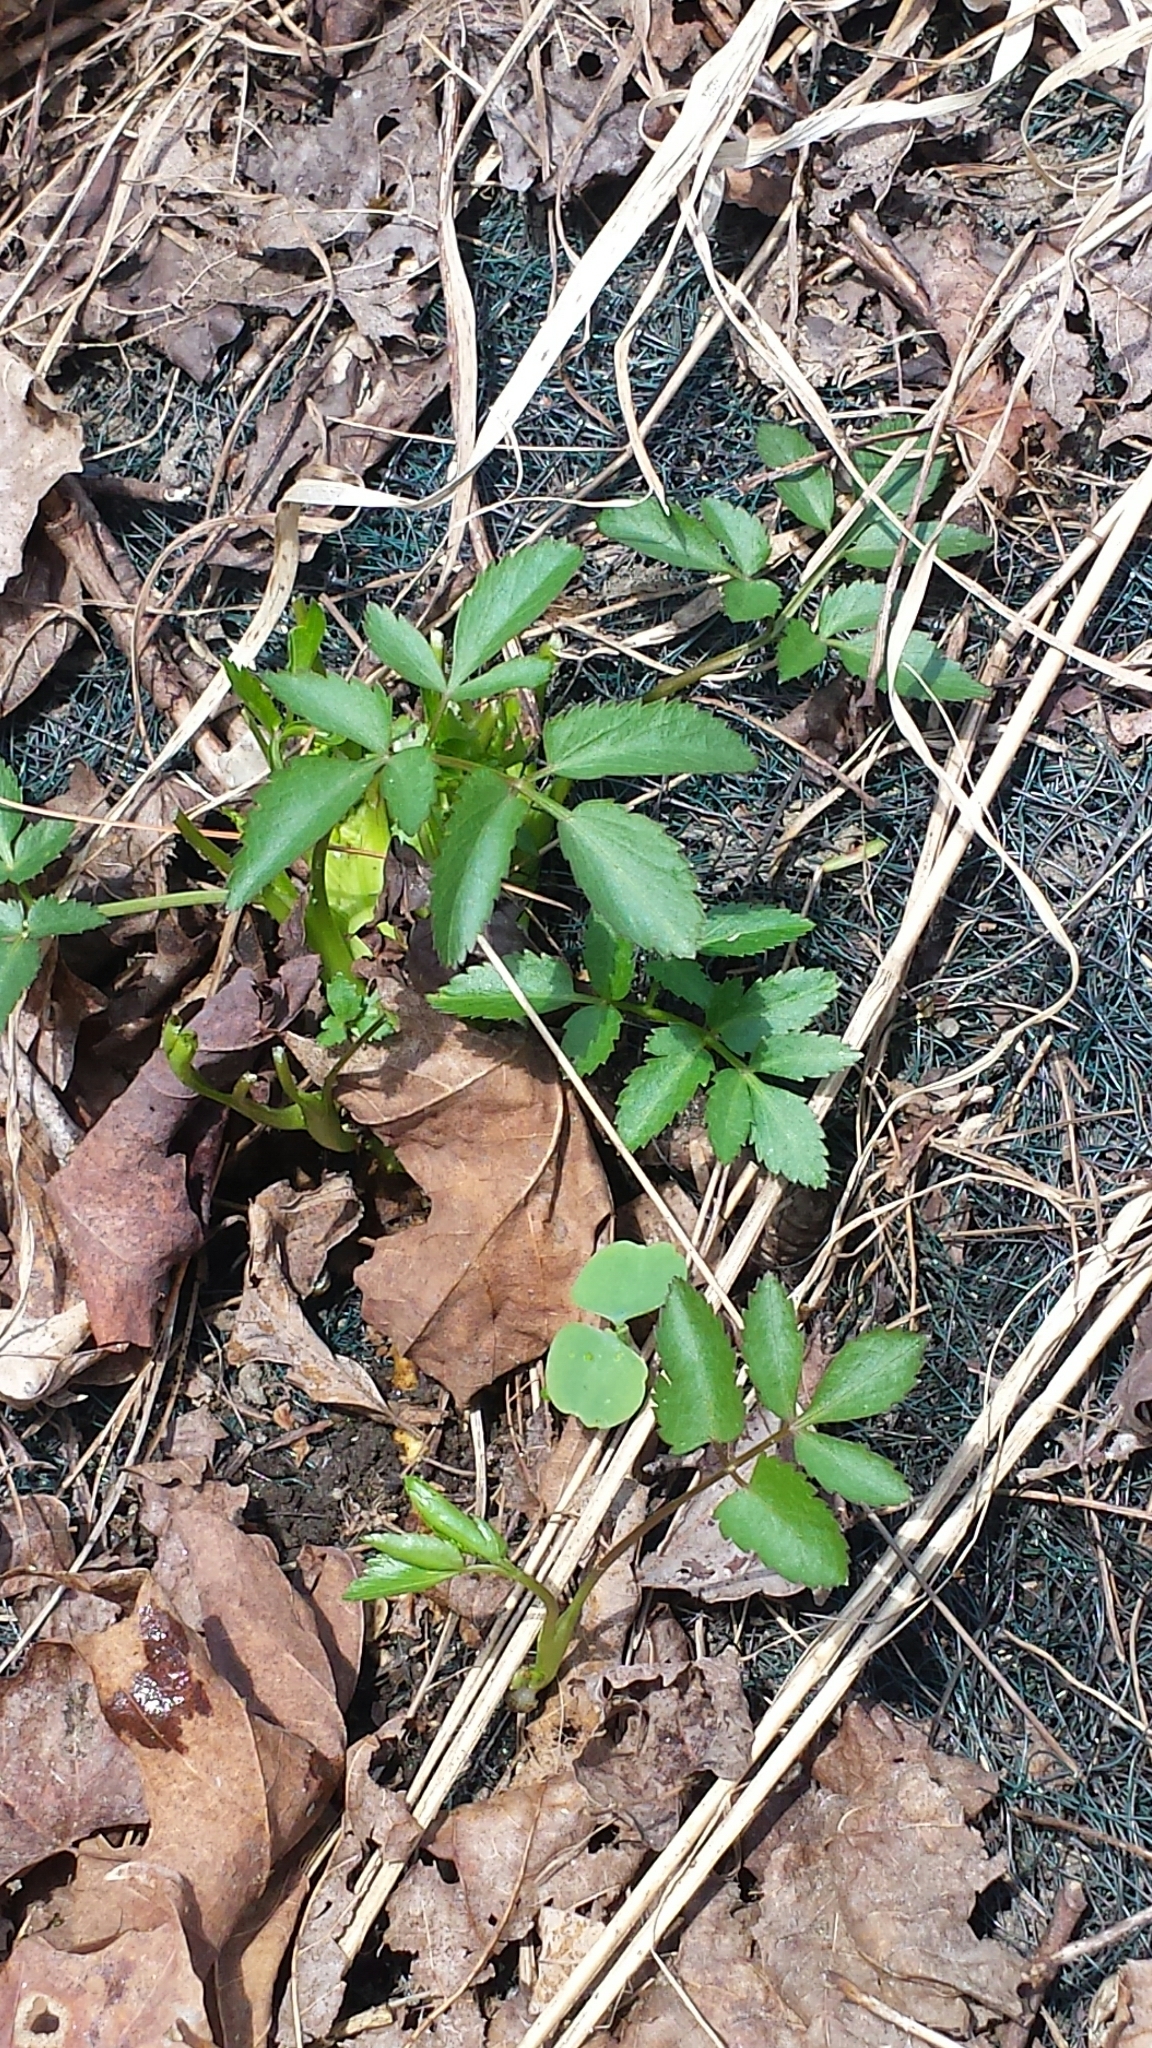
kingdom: Plantae
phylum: Tracheophyta
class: Magnoliopsida
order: Apiales
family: Apiaceae
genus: Zizia
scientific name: Zizia aurea
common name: Golden alexanders
